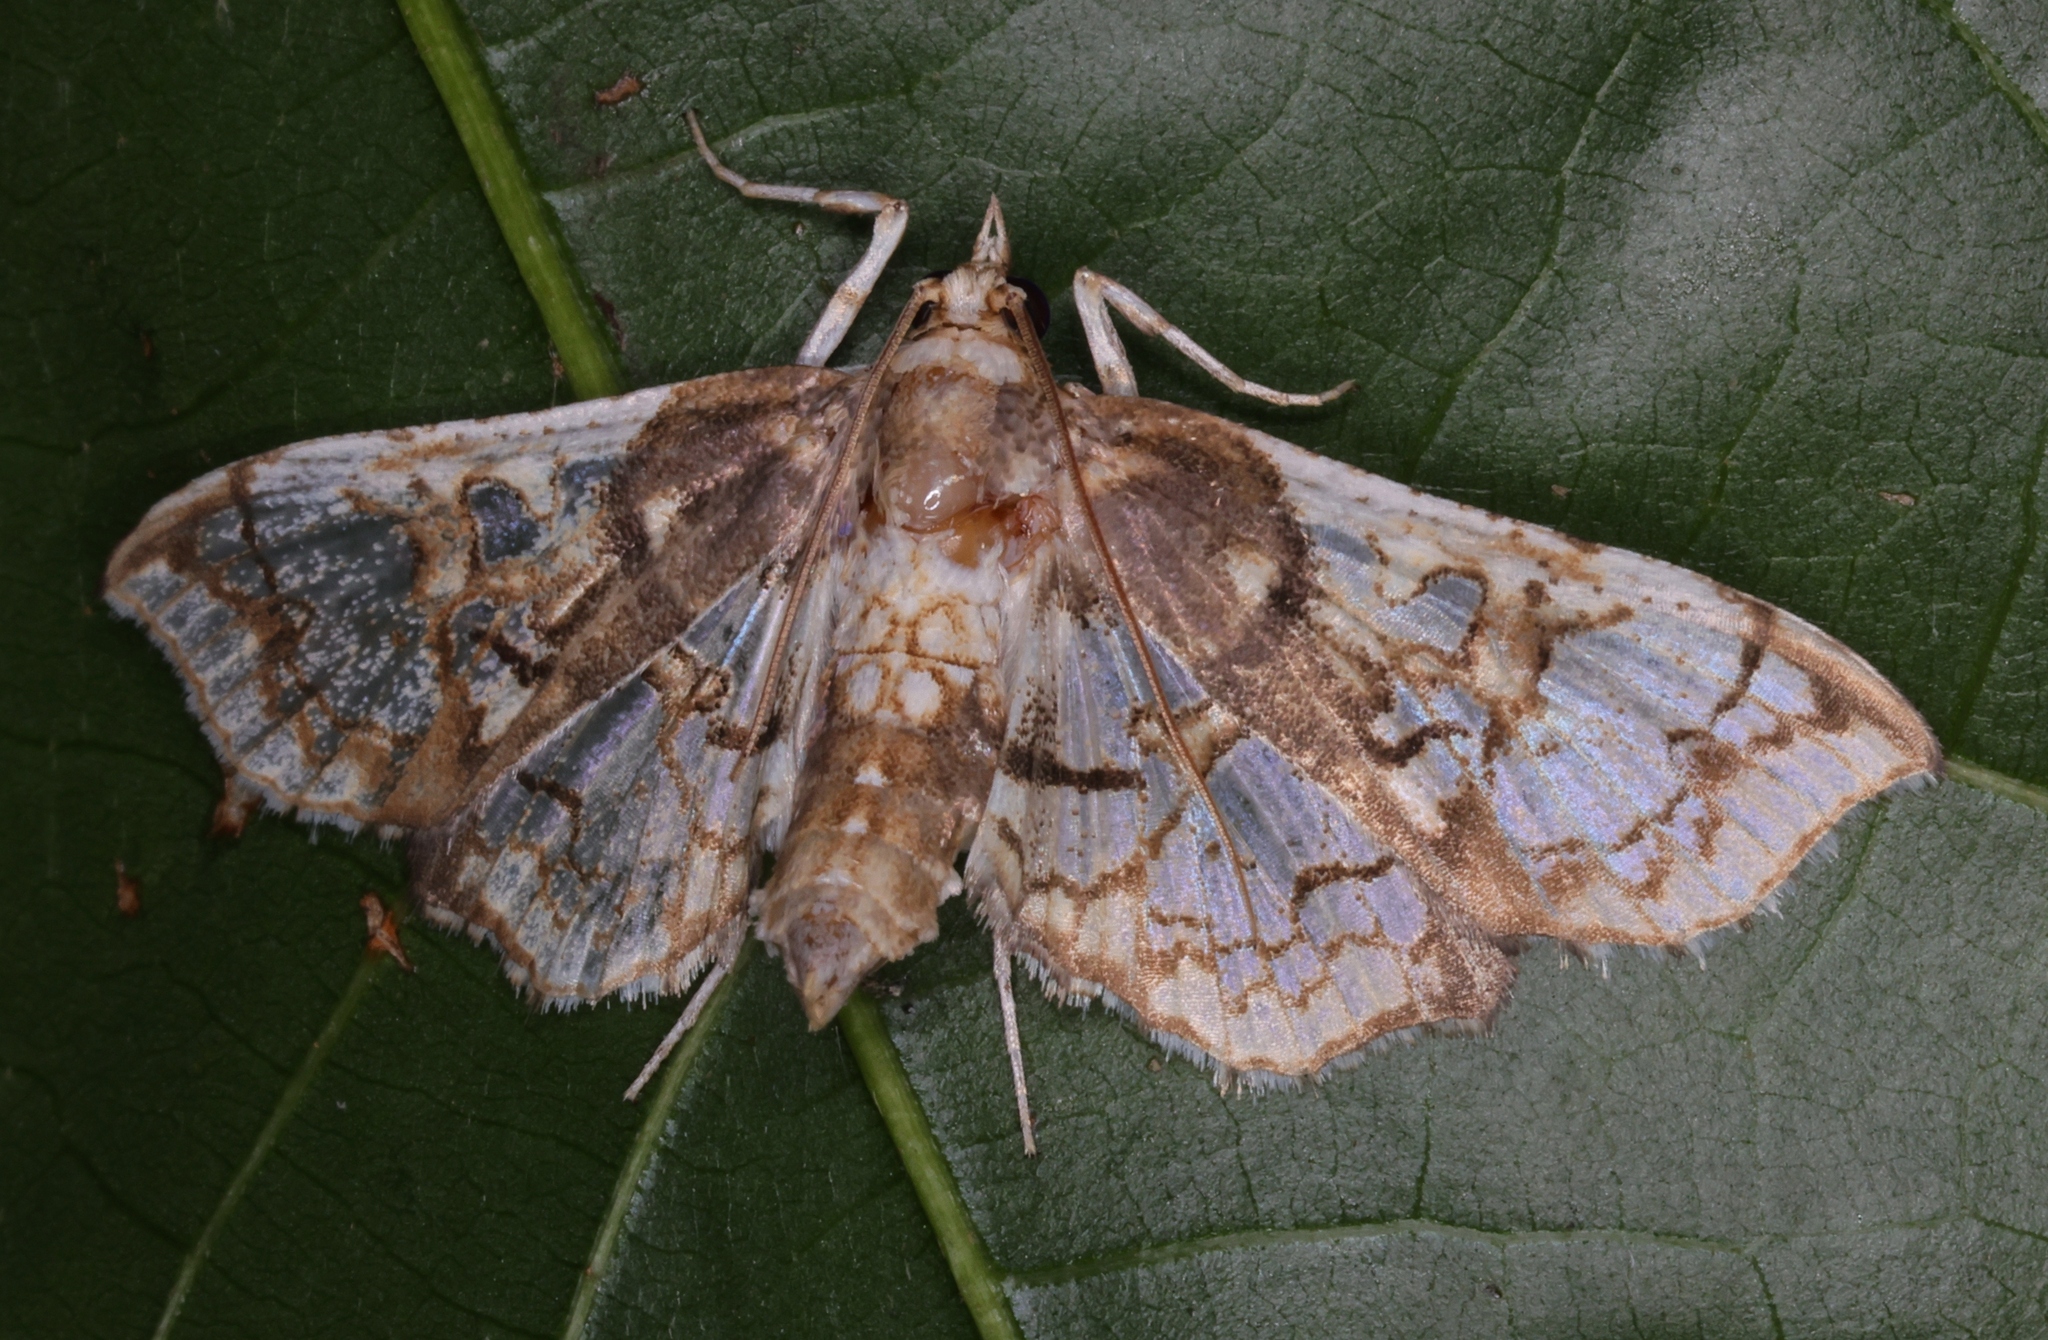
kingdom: Animalia
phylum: Arthropoda
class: Insecta
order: Lepidoptera
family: Crambidae
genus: Omphisa
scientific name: Omphisa anastomosalis
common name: Sweetpotato vineborer
